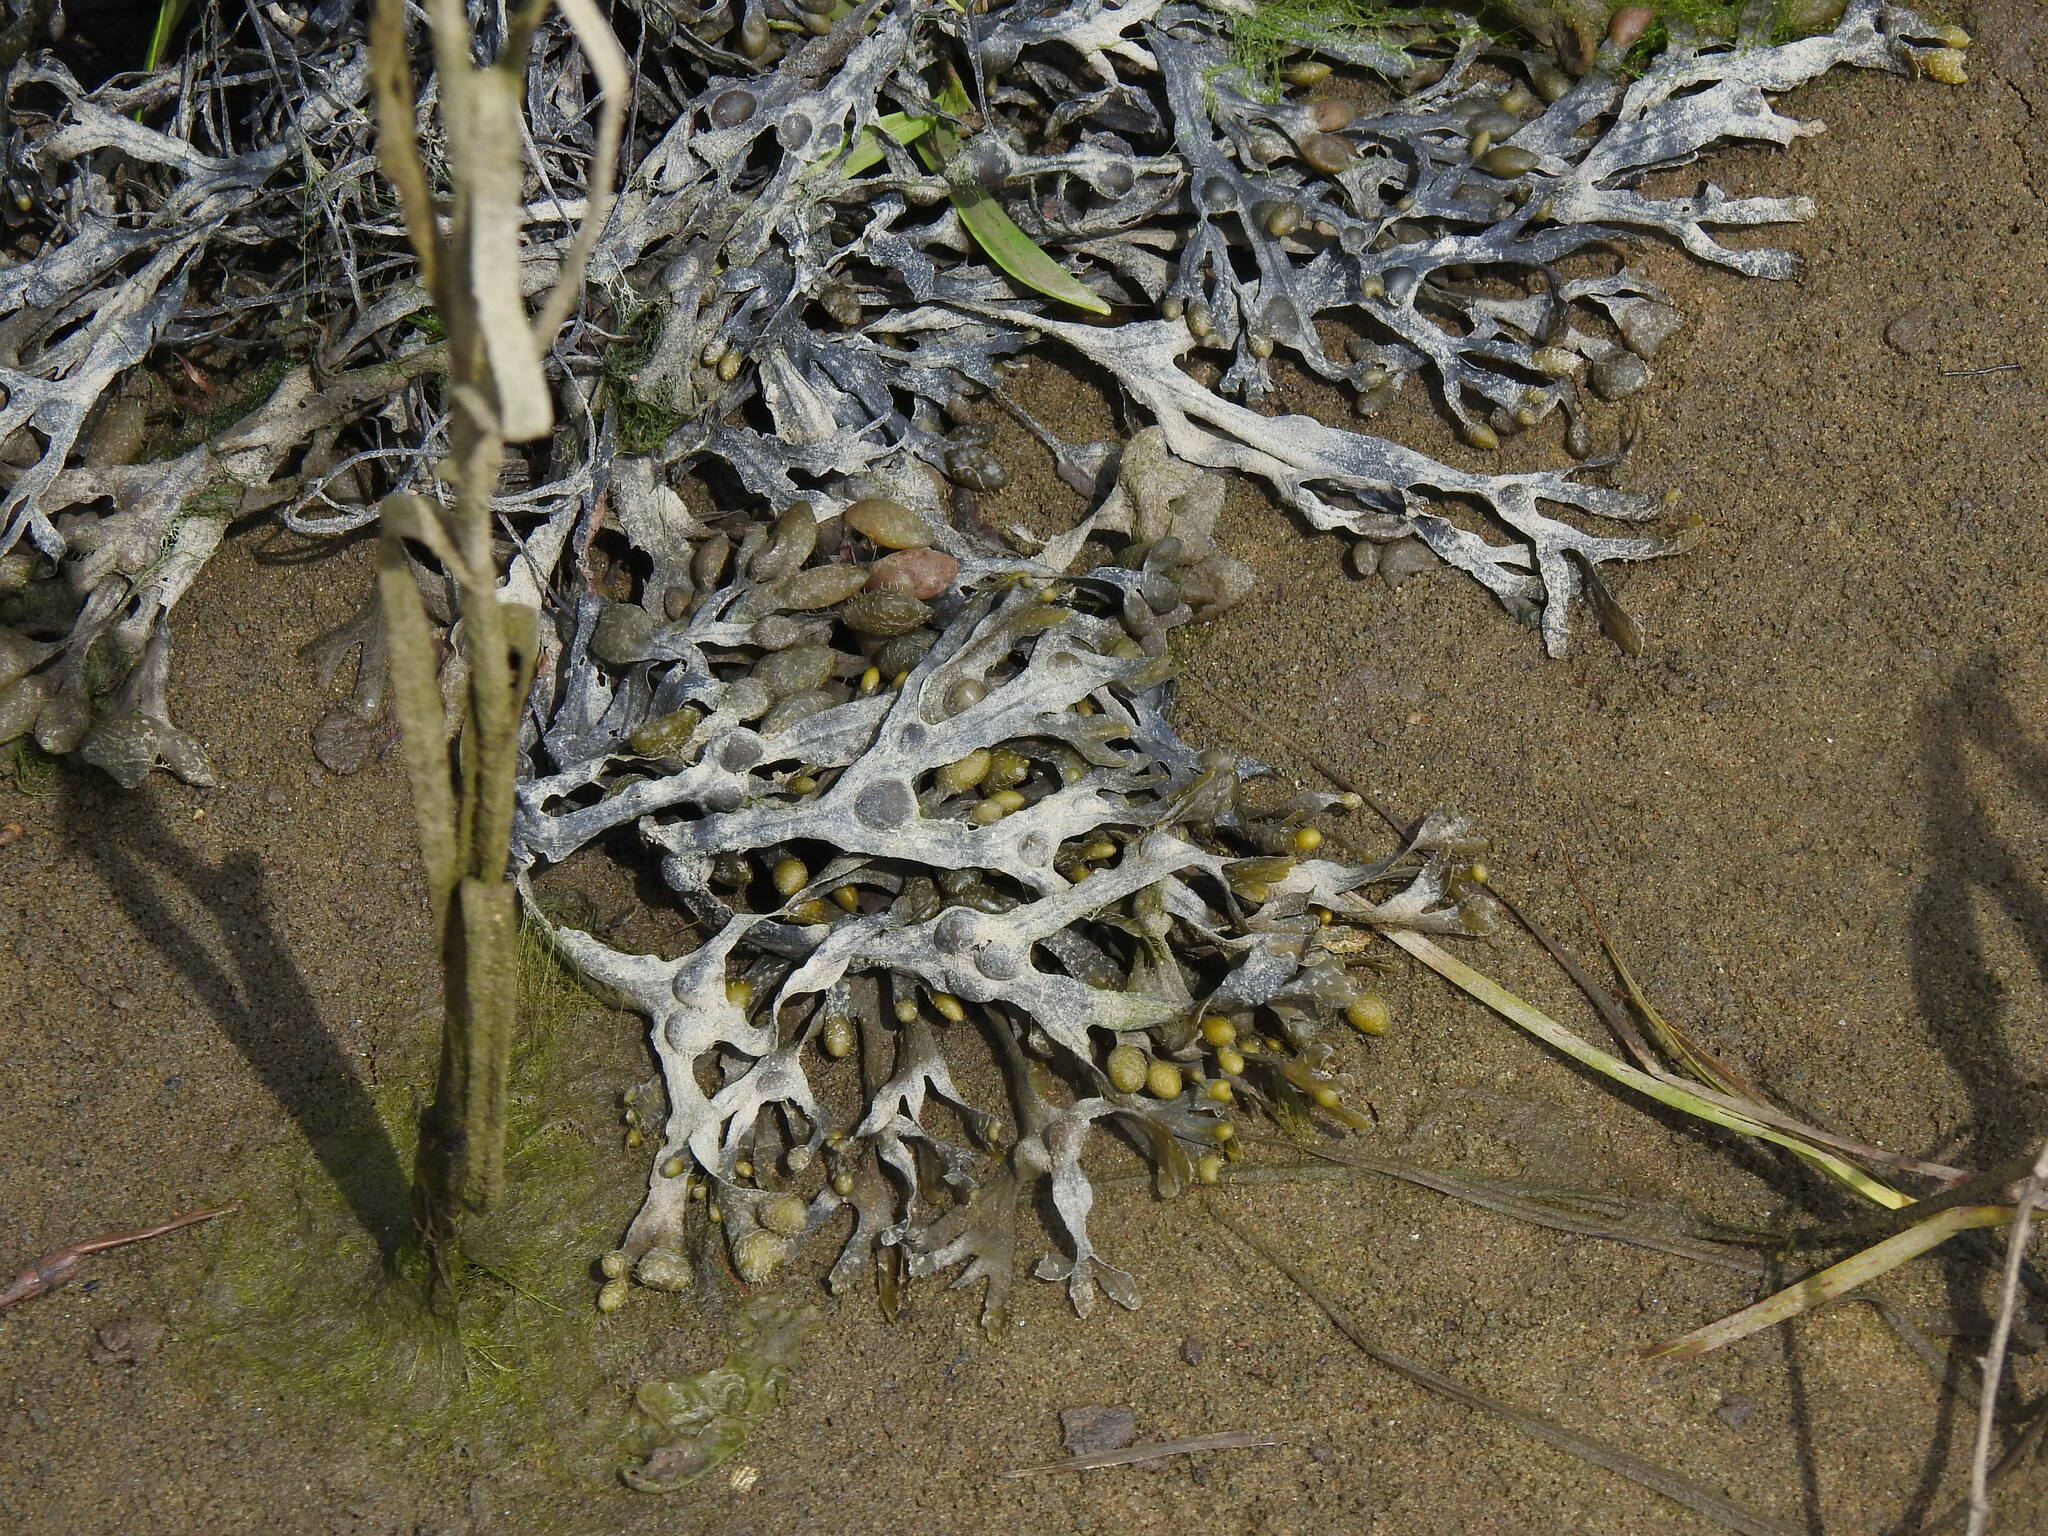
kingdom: Chromista
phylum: Ochrophyta
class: Phaeophyceae
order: Fucales
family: Fucaceae
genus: Fucus
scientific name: Fucus vesiculosus
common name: Bladder wrack
